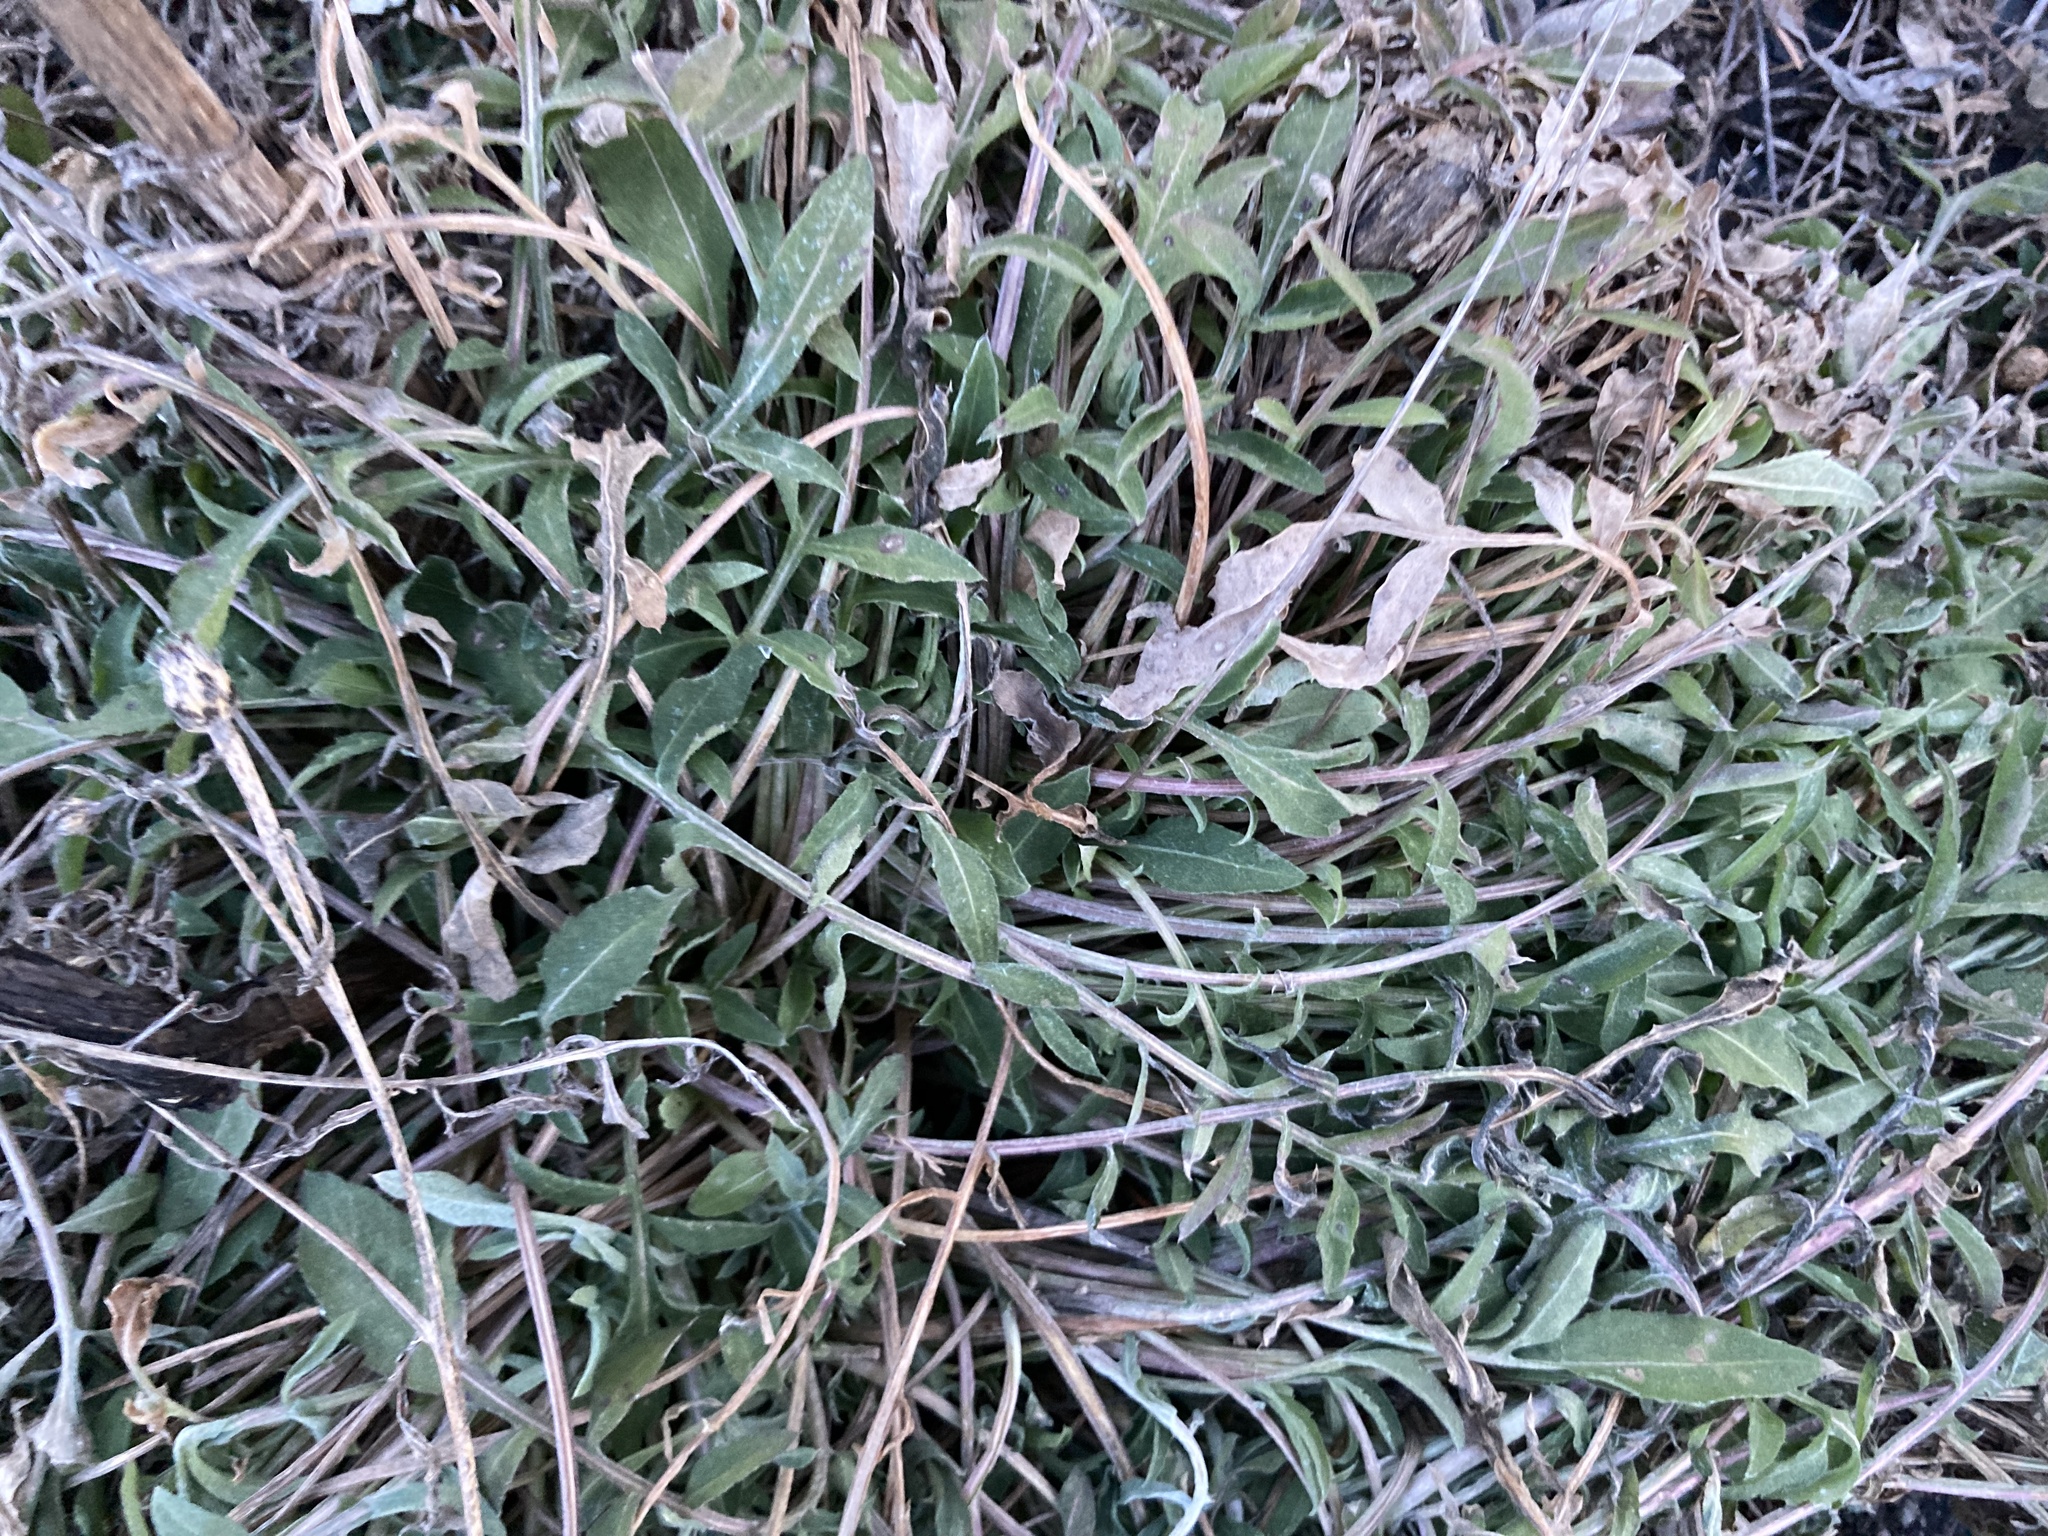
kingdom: Plantae
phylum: Tracheophyta
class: Magnoliopsida
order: Asterales
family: Asteraceae
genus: Centaurea
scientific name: Centaurea stoebe
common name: Spotted knapweed
